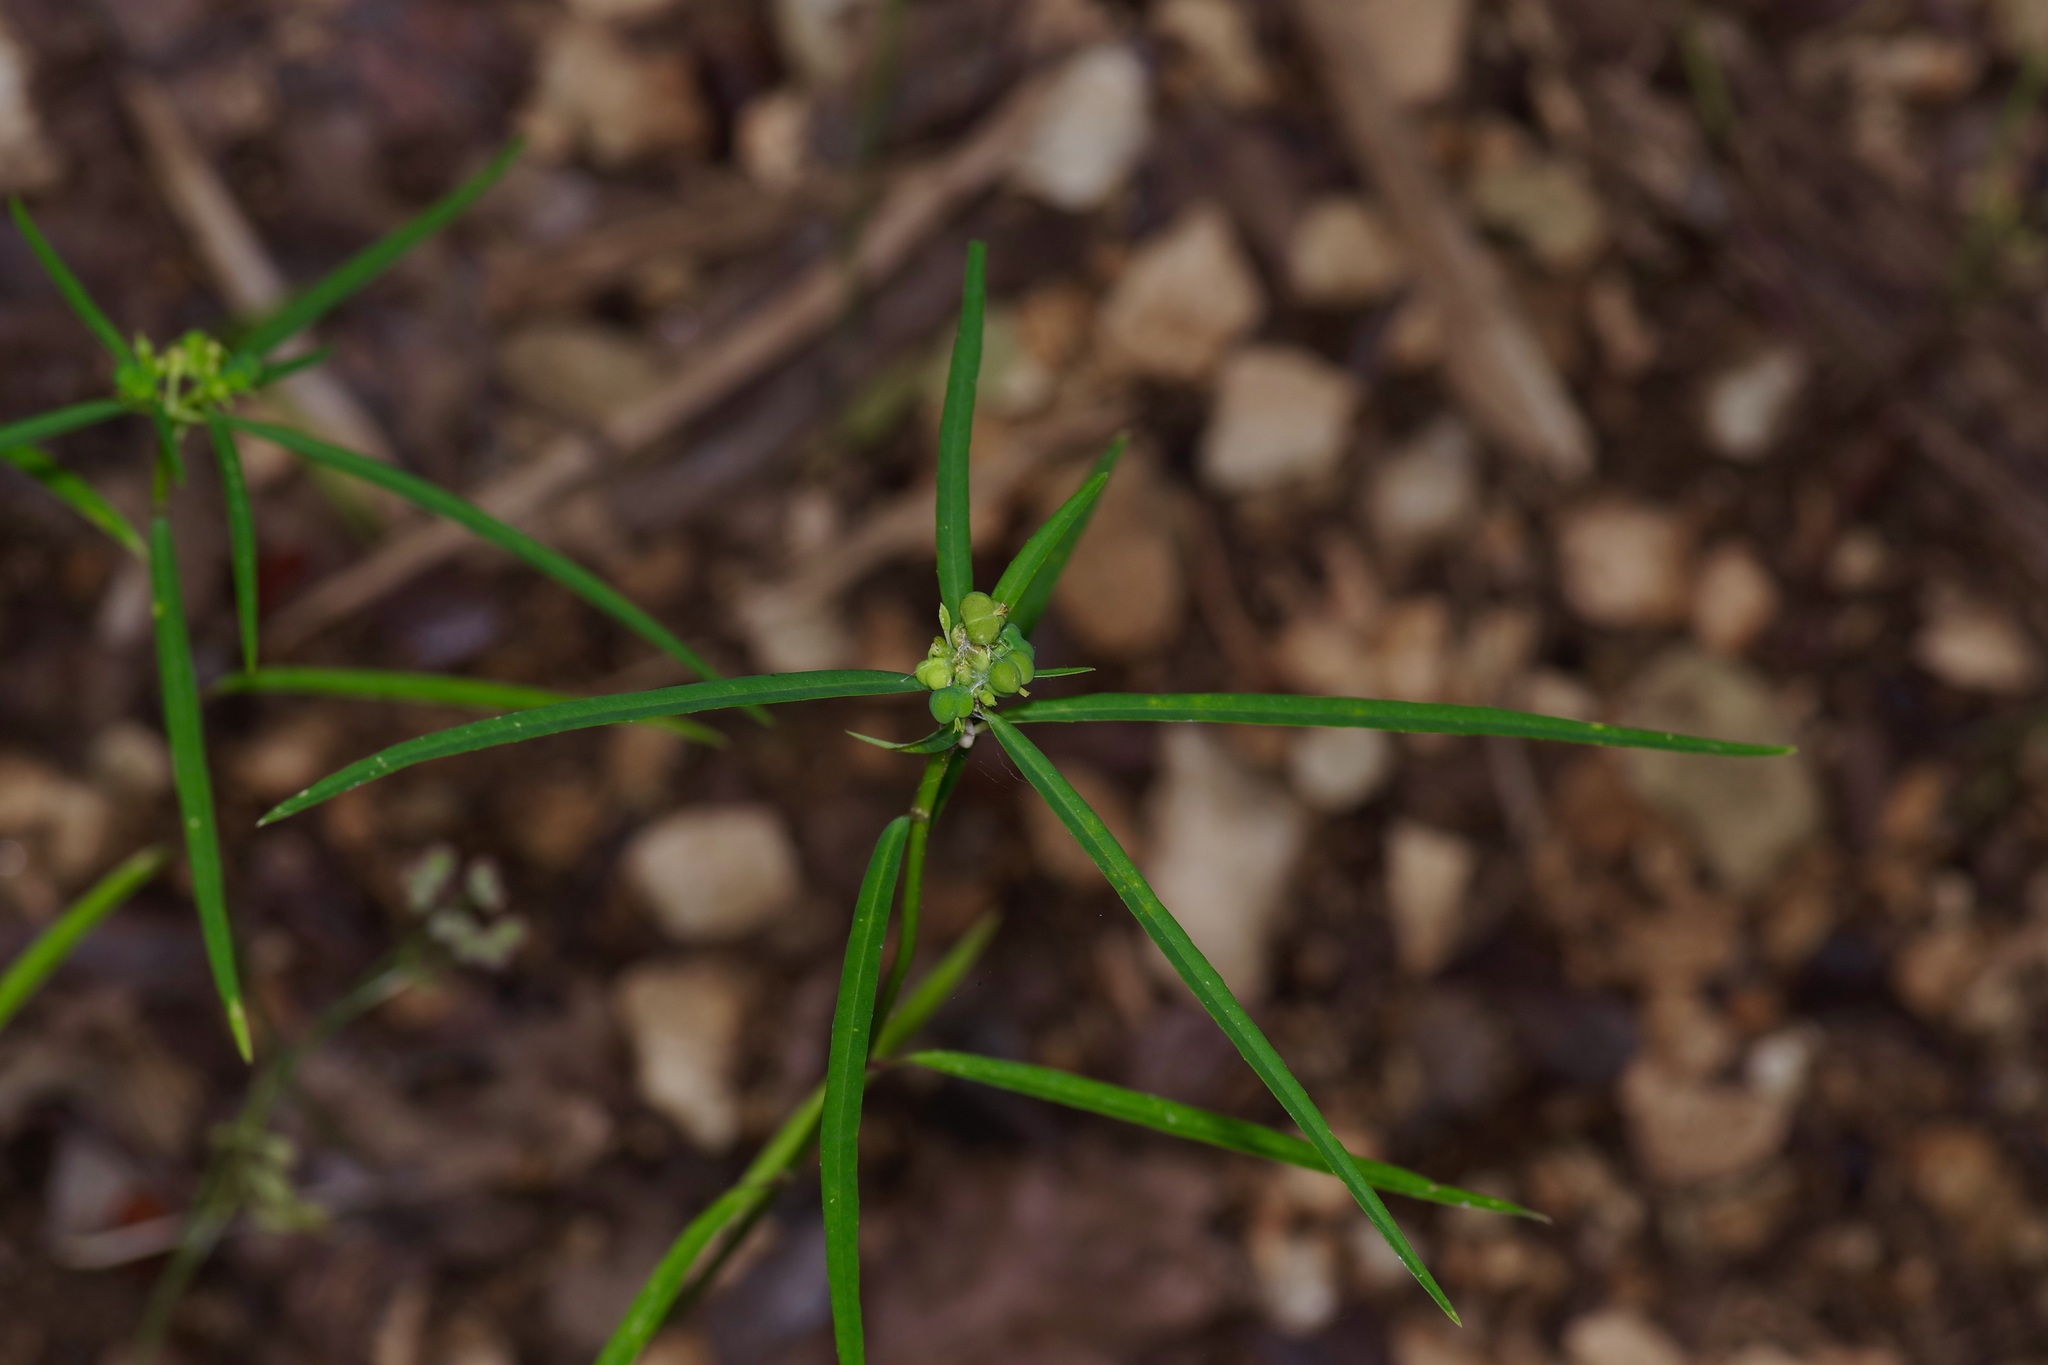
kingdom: Plantae
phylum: Tracheophyta
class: Magnoliopsida
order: Malpighiales
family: Euphorbiaceae
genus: Euphorbia
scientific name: Euphorbia heterophylla
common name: Mexican fireplant
